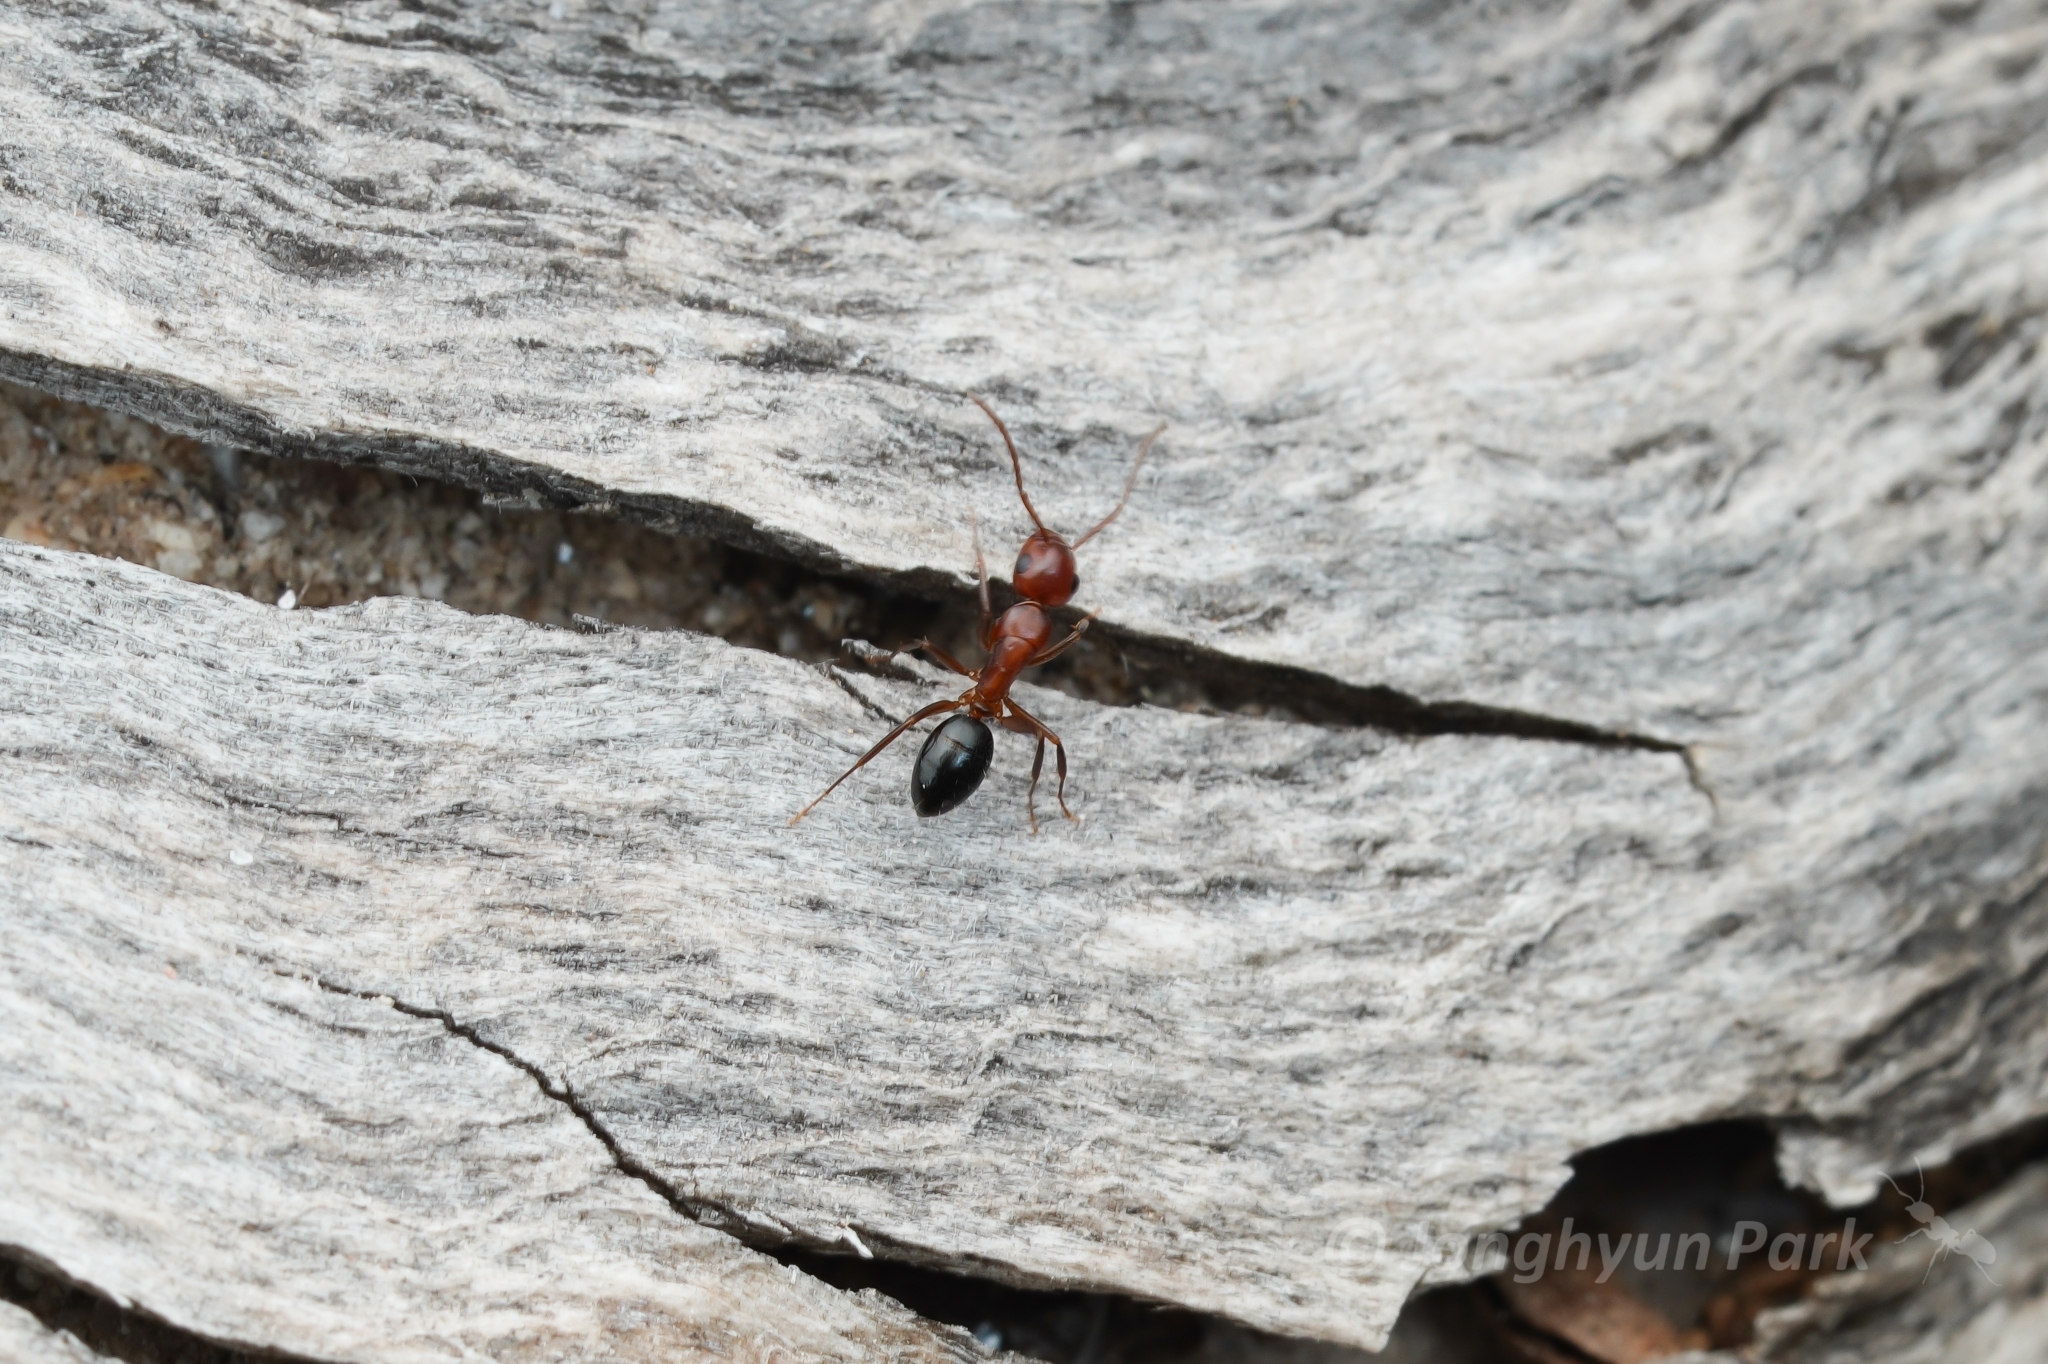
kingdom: Animalia
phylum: Arthropoda
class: Insecta
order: Hymenoptera
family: Formicidae
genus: Camponotus
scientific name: Camponotus sayi
